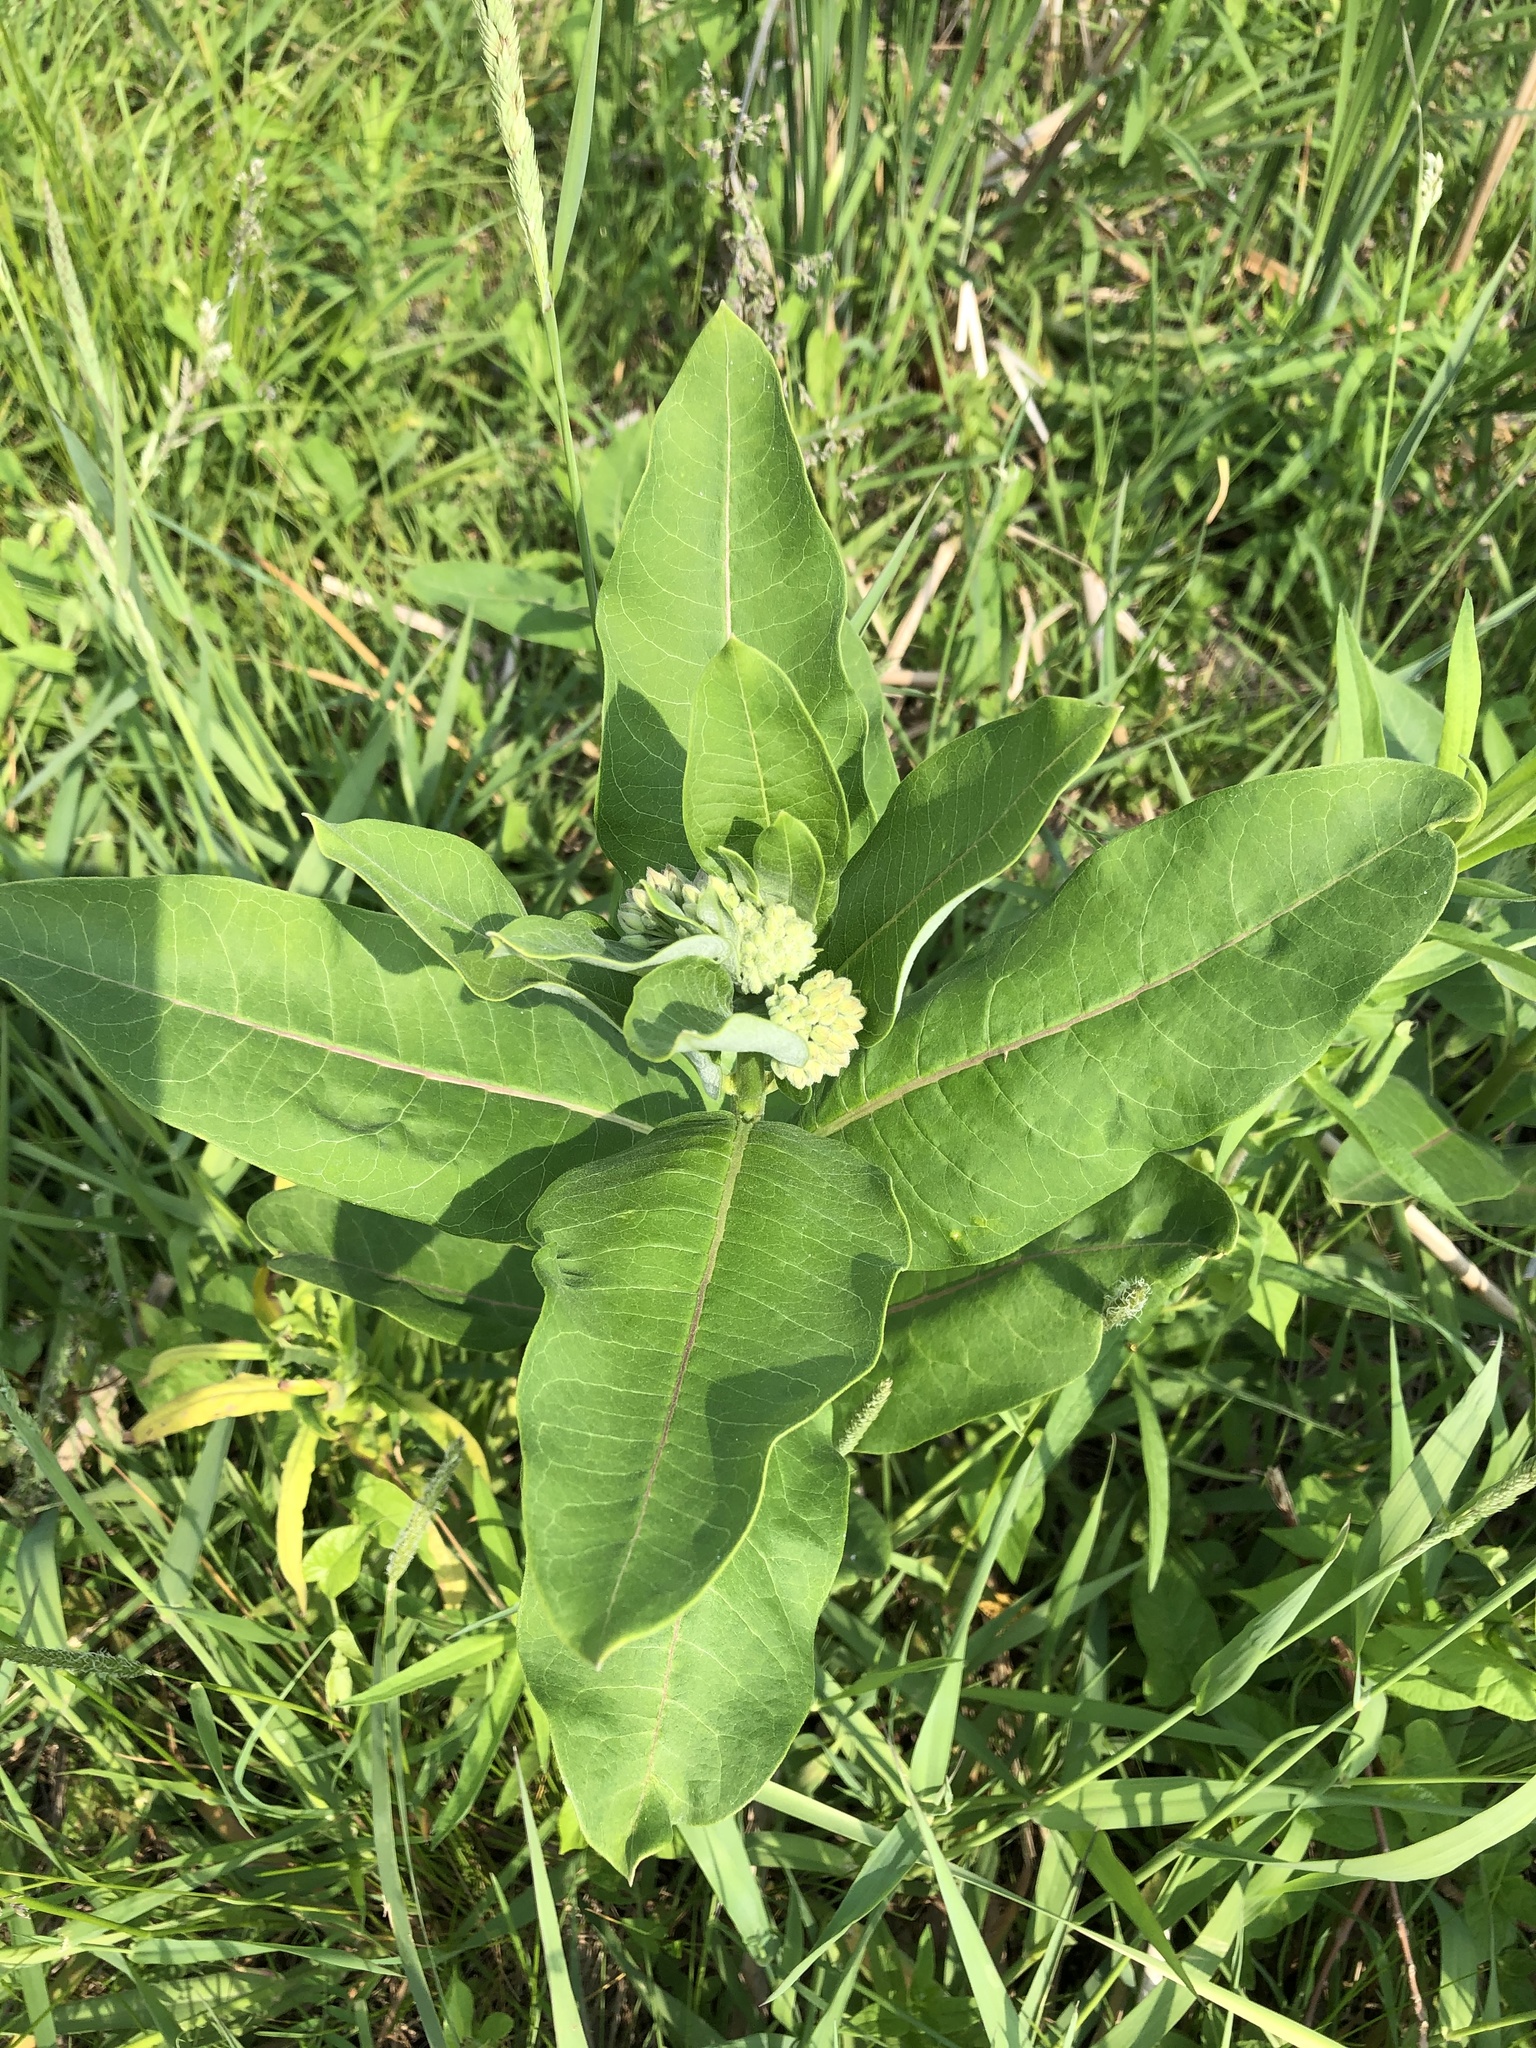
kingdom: Plantae
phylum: Tracheophyta
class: Magnoliopsida
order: Gentianales
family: Apocynaceae
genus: Asclepias
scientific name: Asclepias syriaca
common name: Common milkweed
